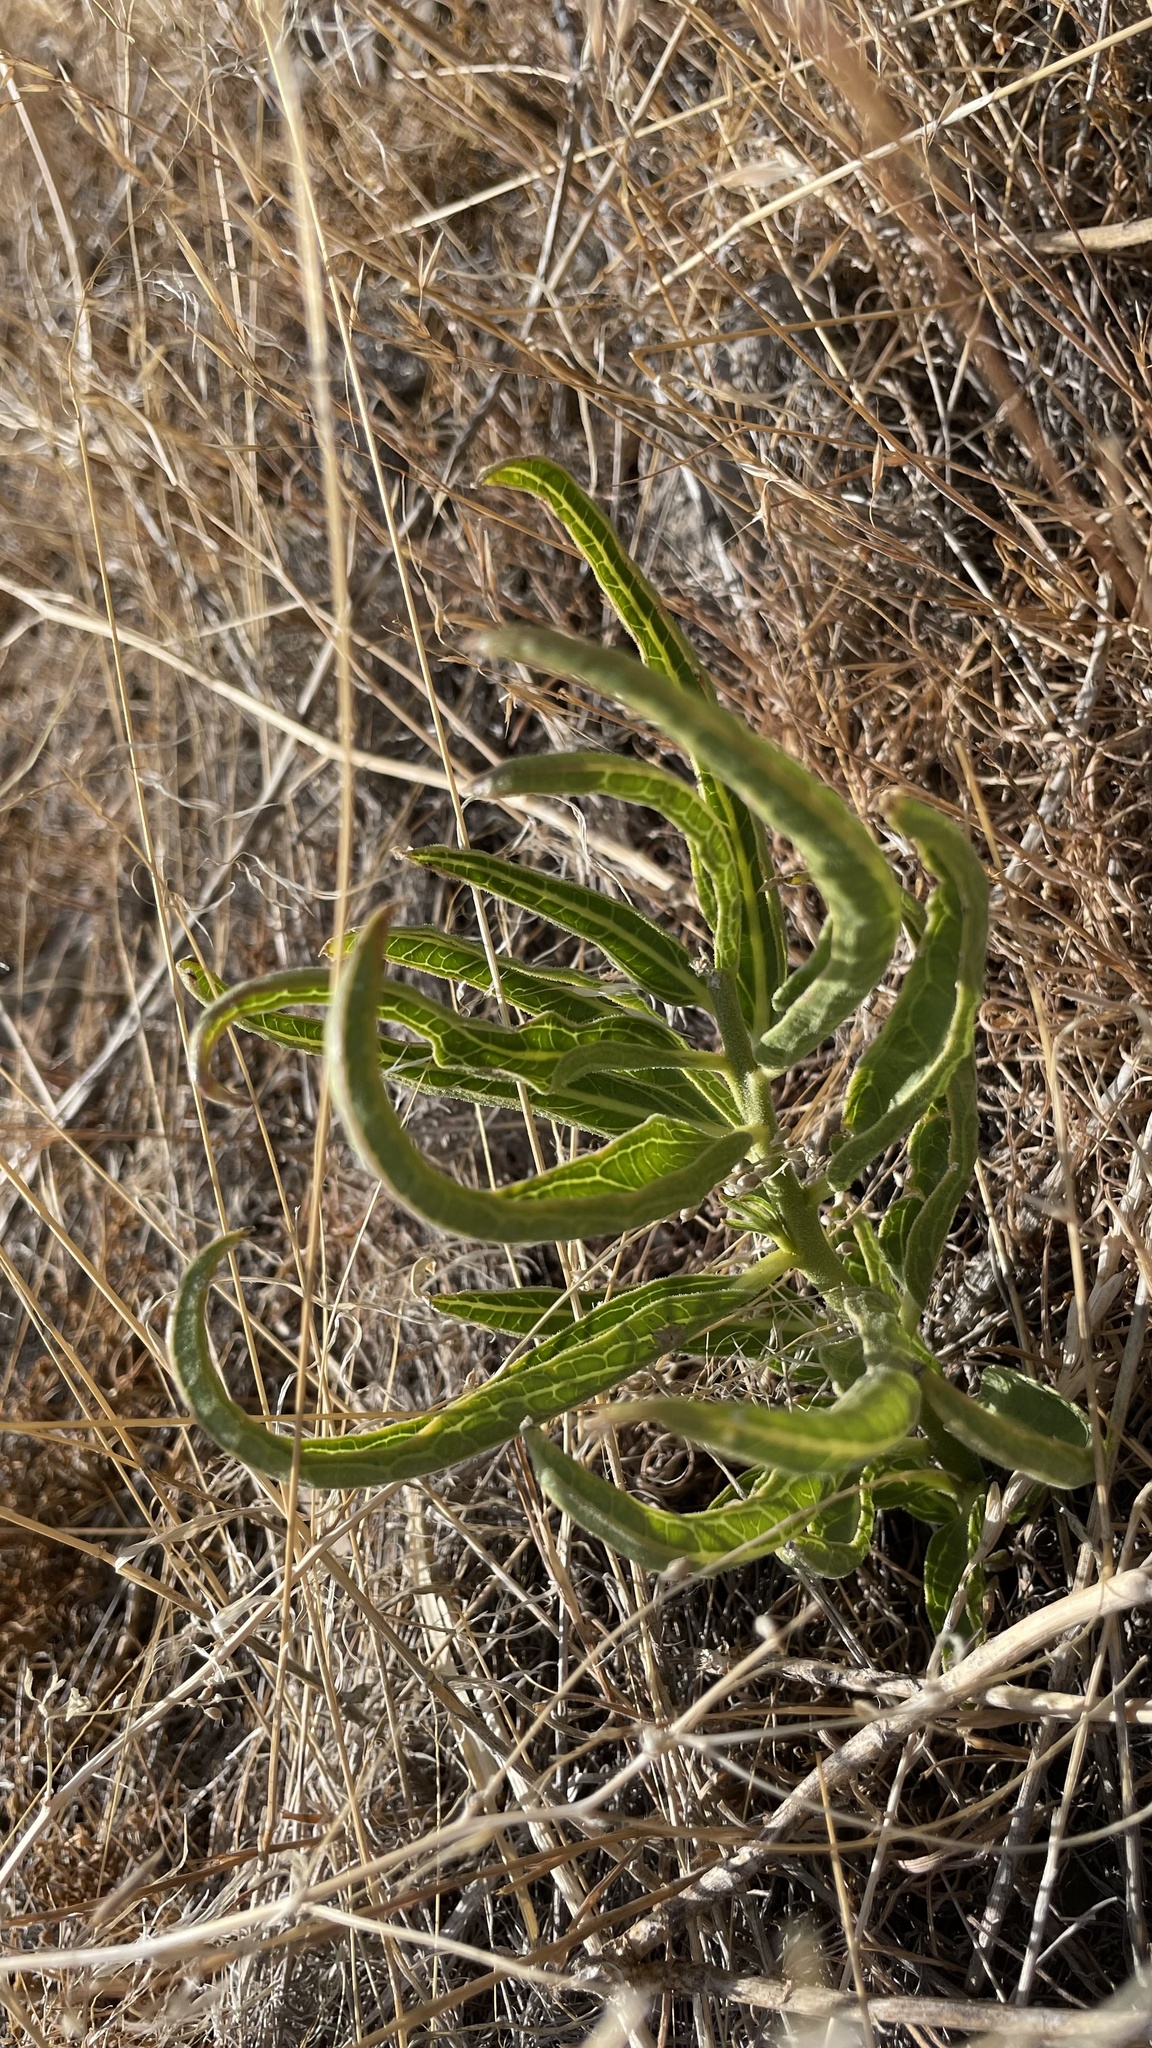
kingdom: Plantae
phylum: Tracheophyta
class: Magnoliopsida
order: Gentianales
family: Apocynaceae
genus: Asclepias
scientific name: Asclepias asperula
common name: Antelope horns
